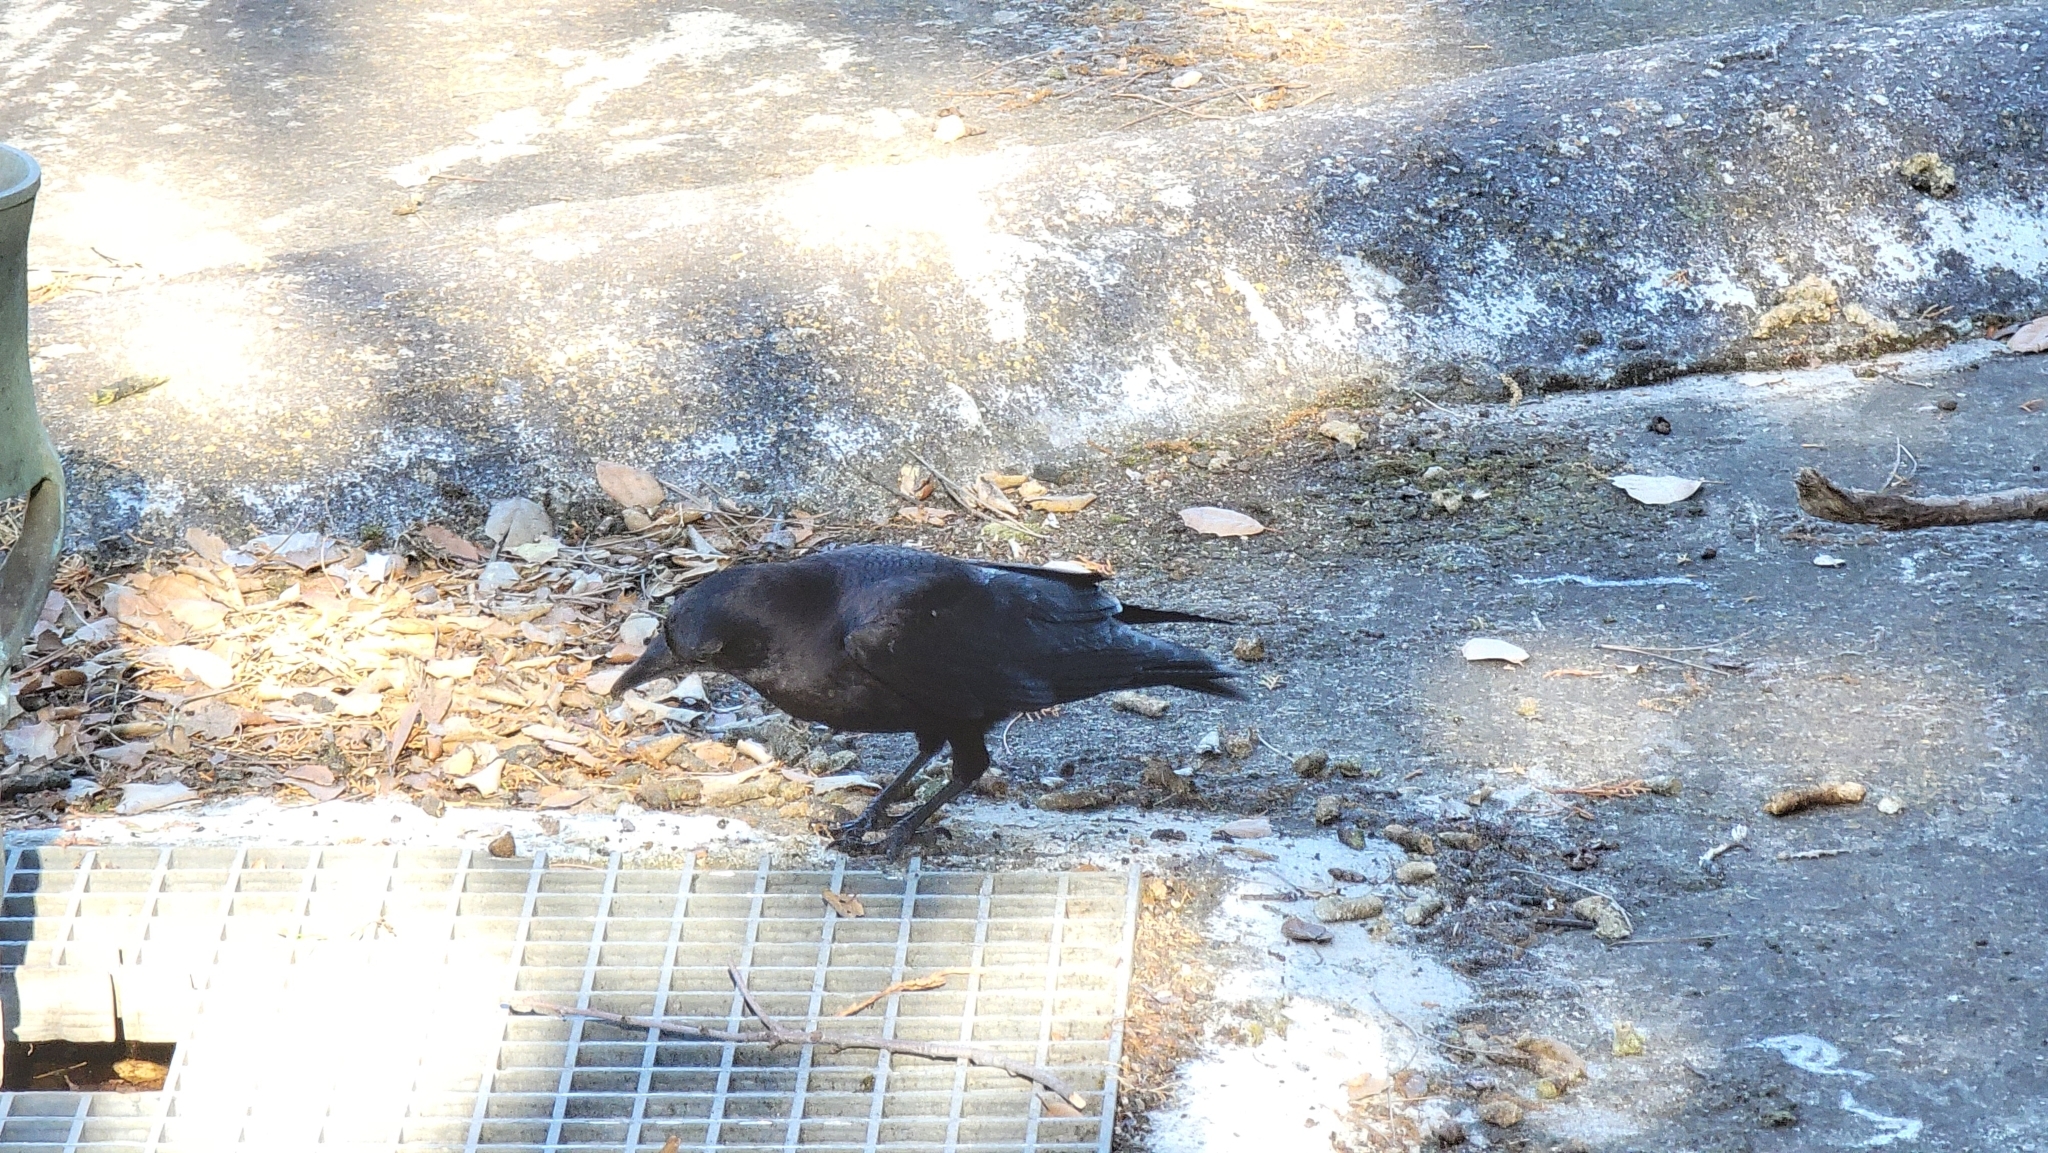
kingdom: Animalia
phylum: Chordata
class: Aves
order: Passeriformes
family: Corvidae
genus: Corvus
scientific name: Corvus brachyrhynchos
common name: American crow
